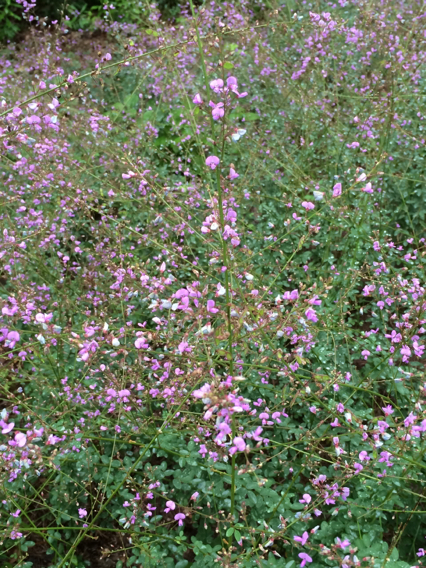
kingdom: Plantae
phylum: Tracheophyta
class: Magnoliopsida
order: Fabales
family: Fabaceae
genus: Desmodium
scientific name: Desmodium paniculatum
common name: Panicled tick-clover
